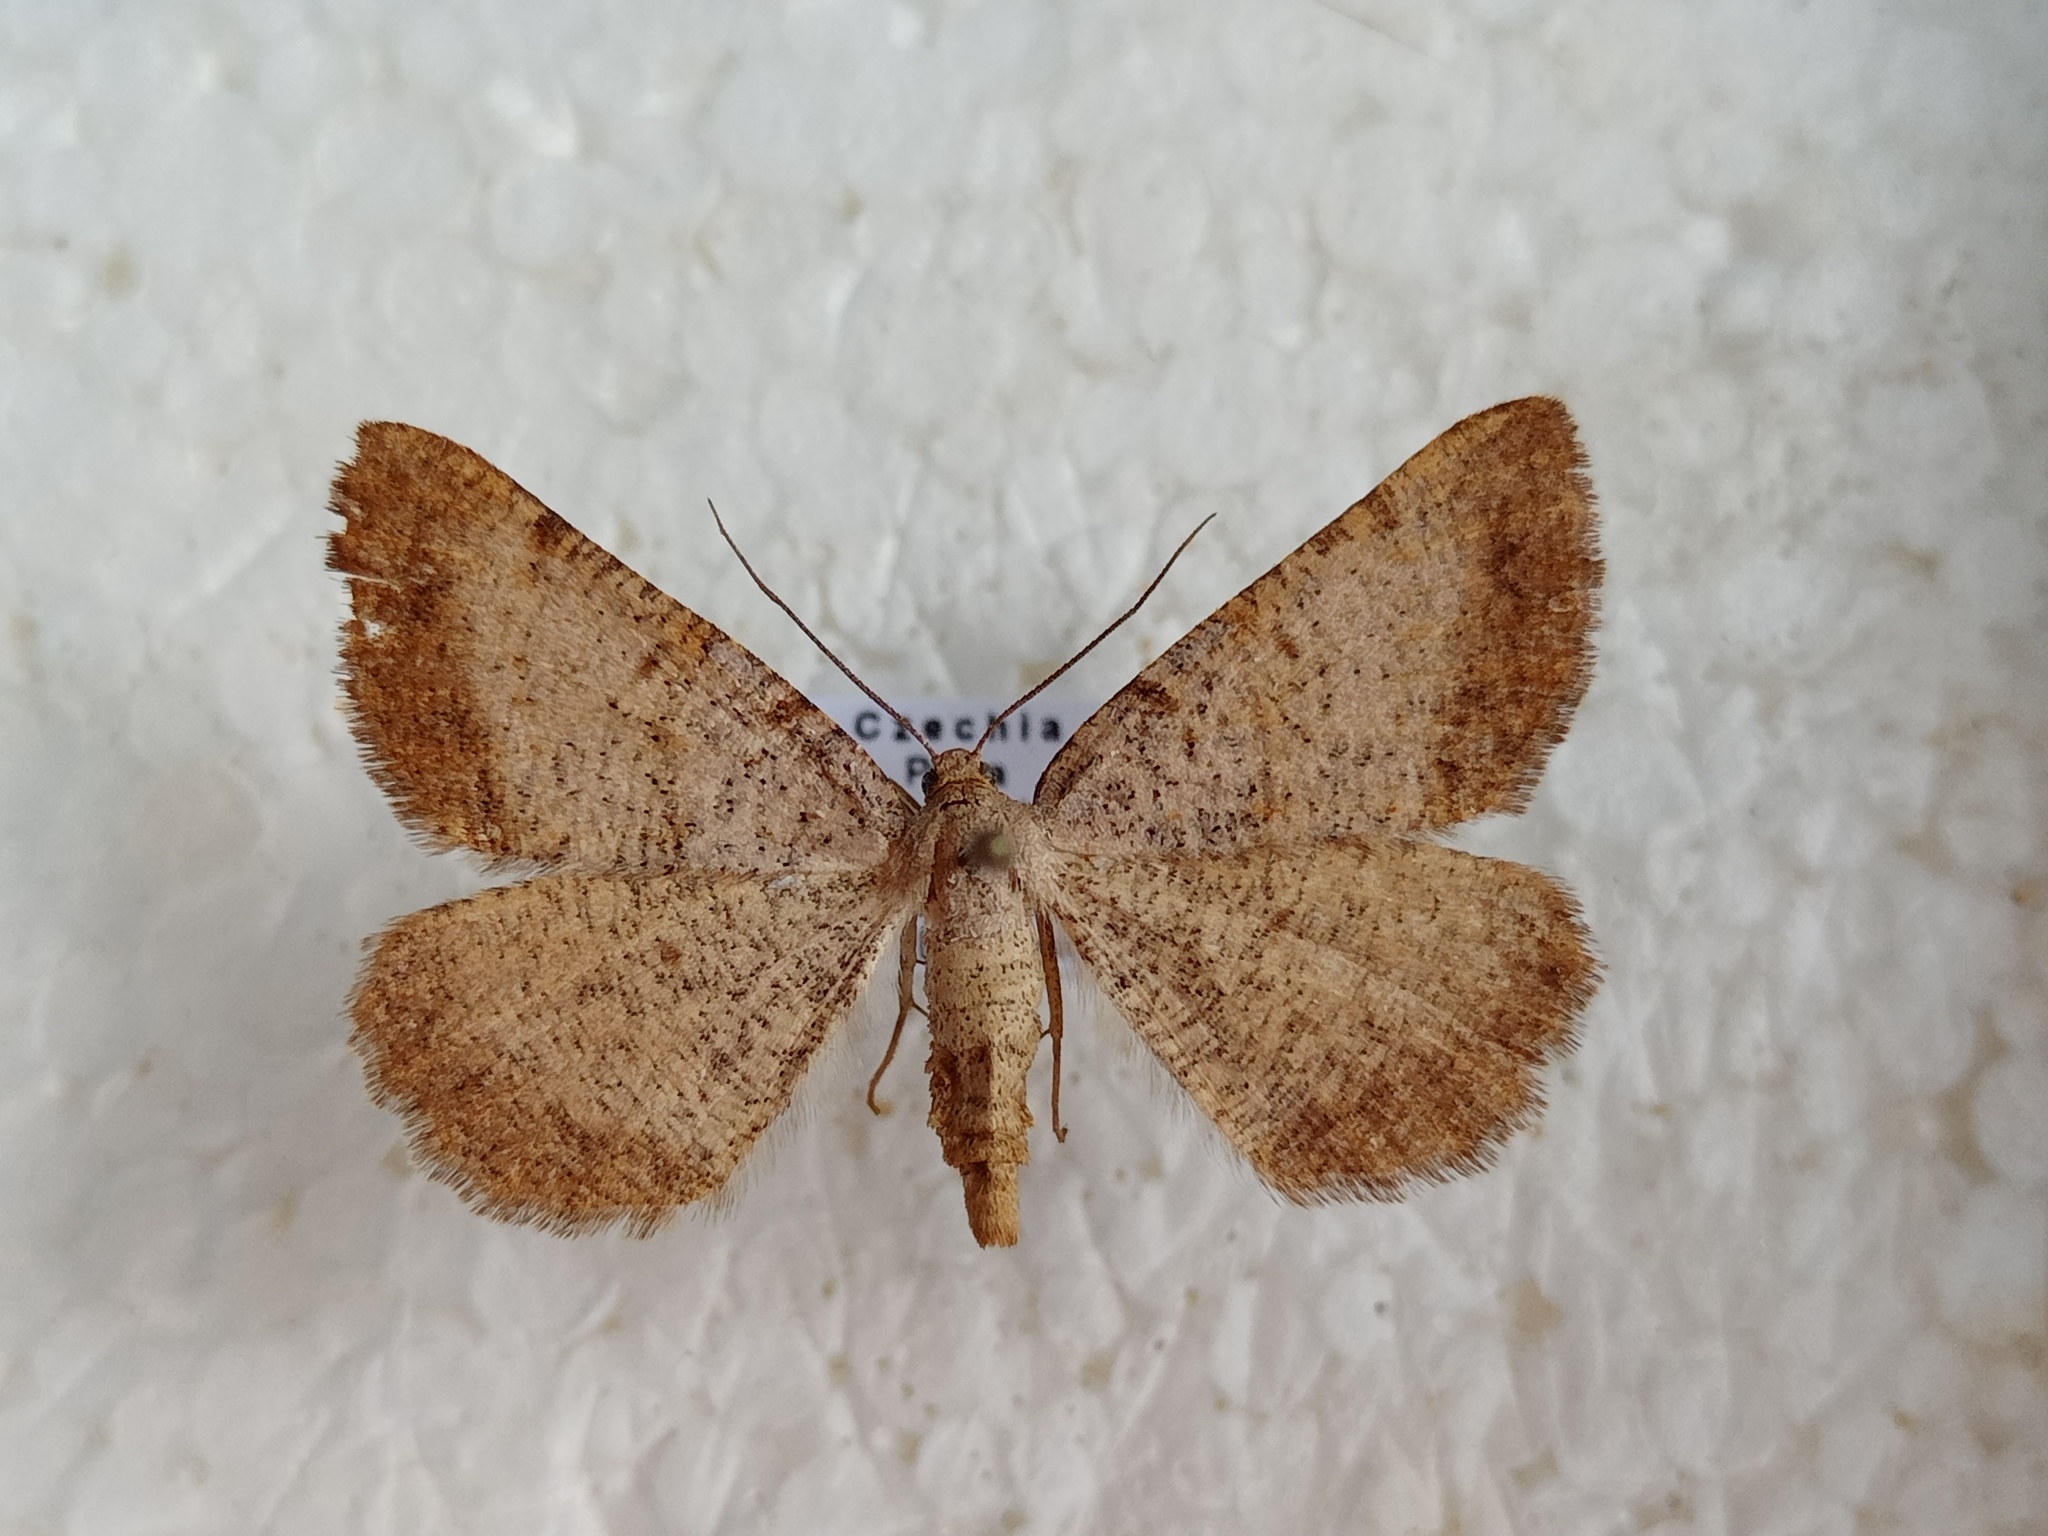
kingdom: Animalia
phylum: Arthropoda
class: Insecta
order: Lepidoptera
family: Geometridae
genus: Selidosema
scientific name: Selidosema brunnearia
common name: Bordered grey
